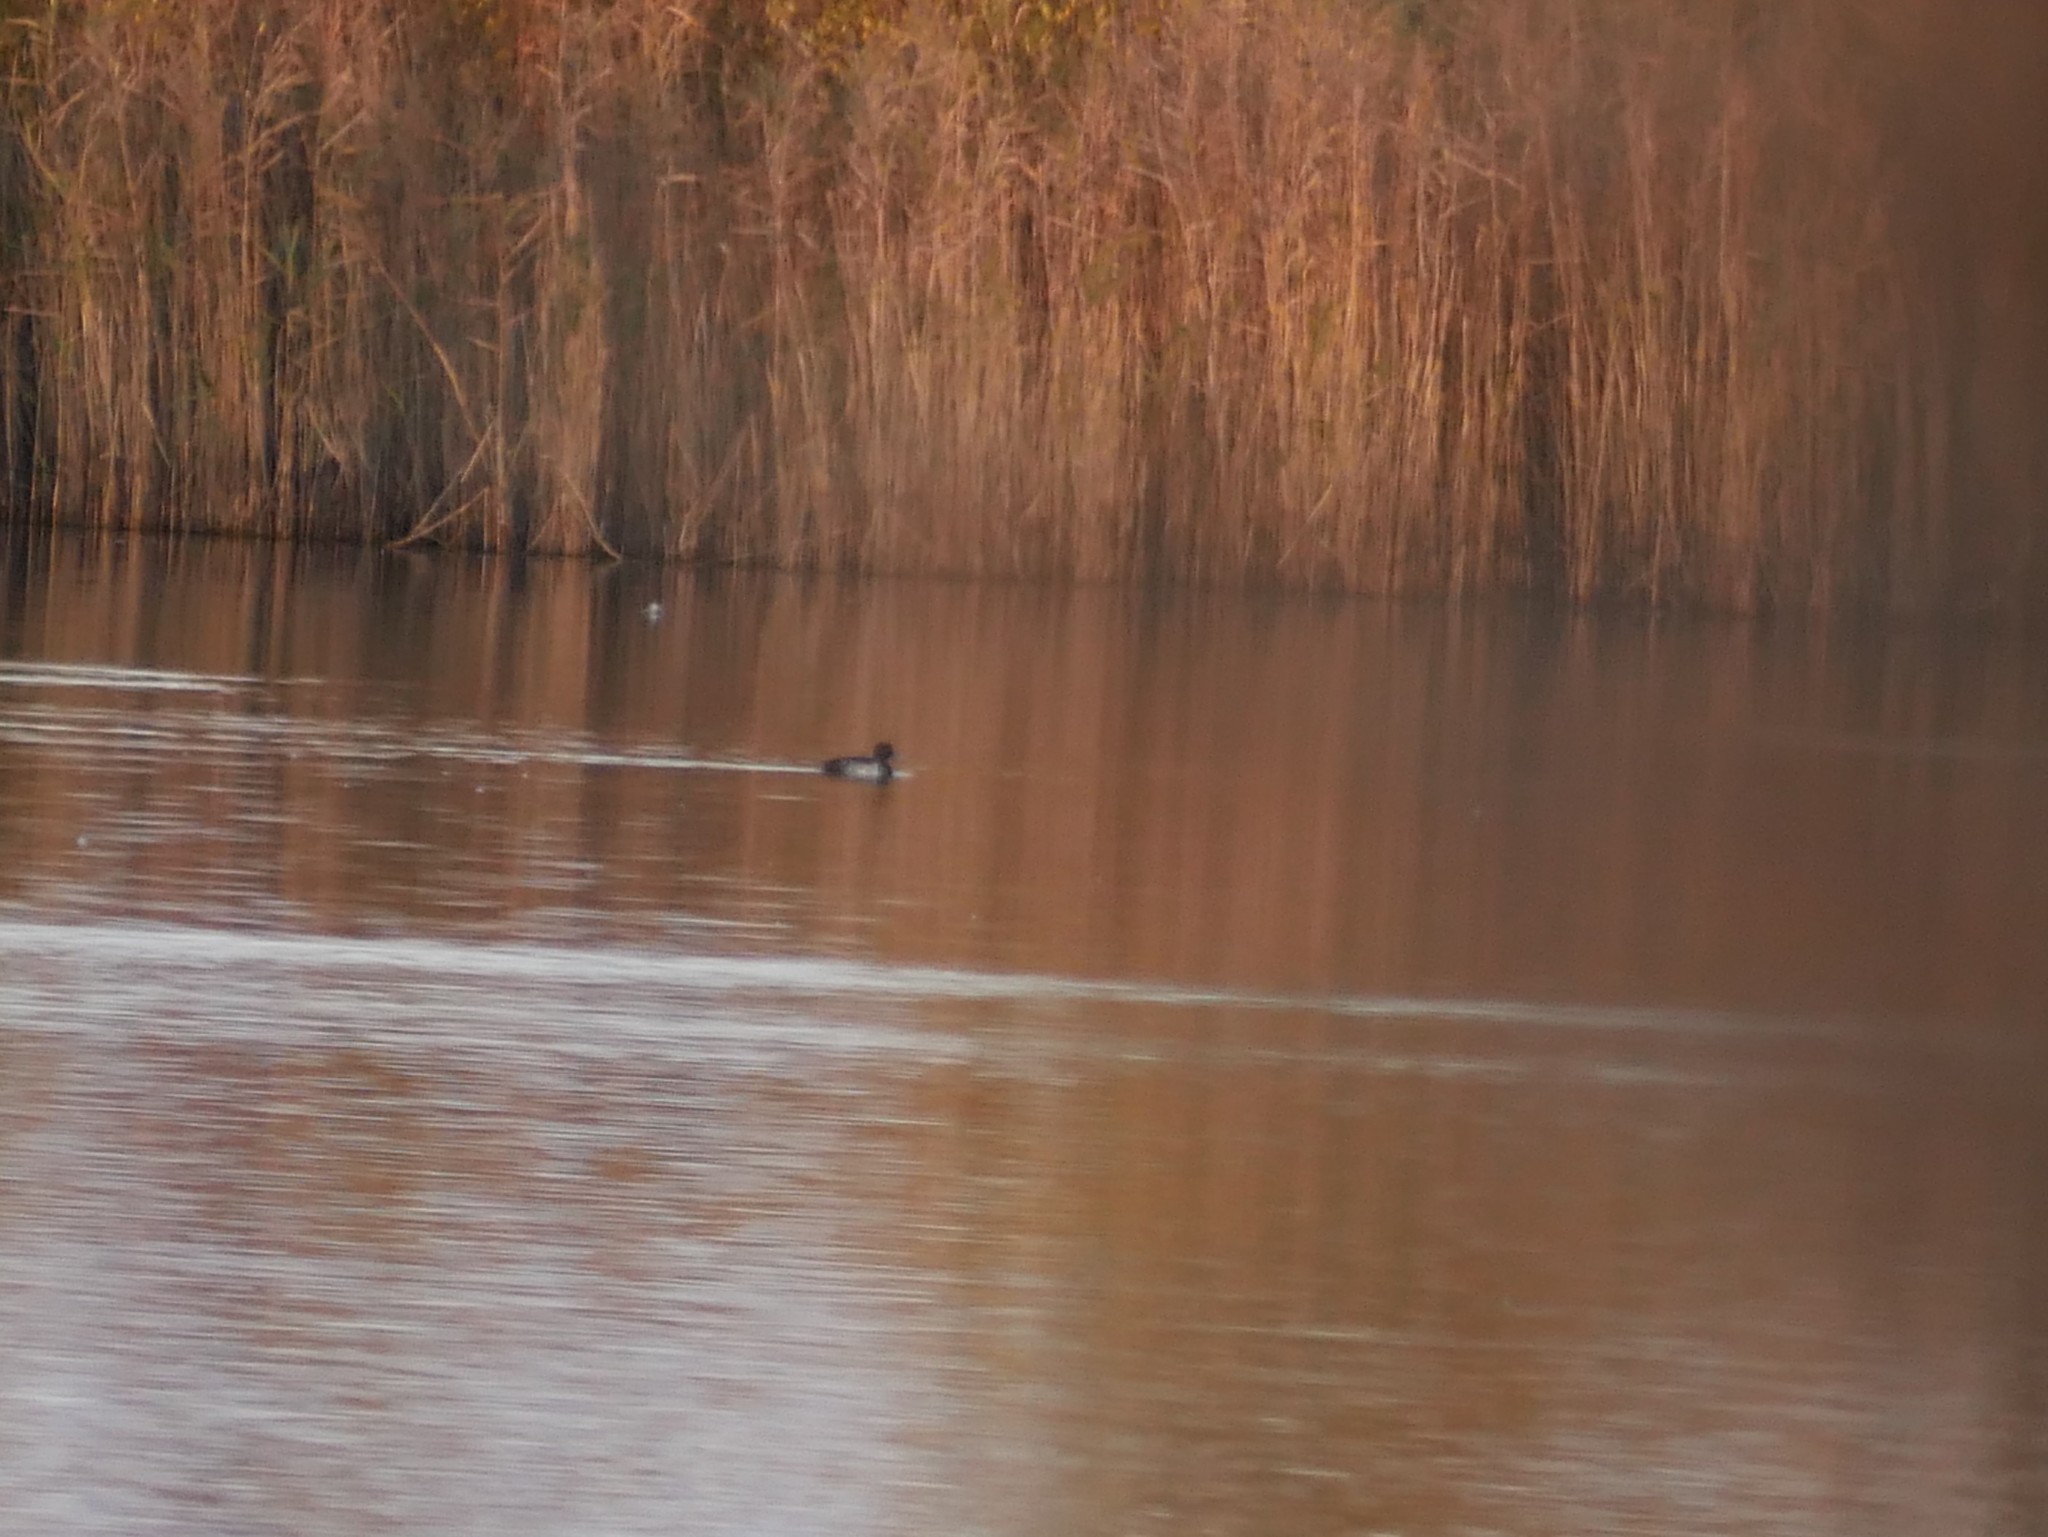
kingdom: Animalia
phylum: Chordata
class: Aves
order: Anseriformes
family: Anatidae
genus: Aythya
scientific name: Aythya fuligula
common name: Tufted duck
